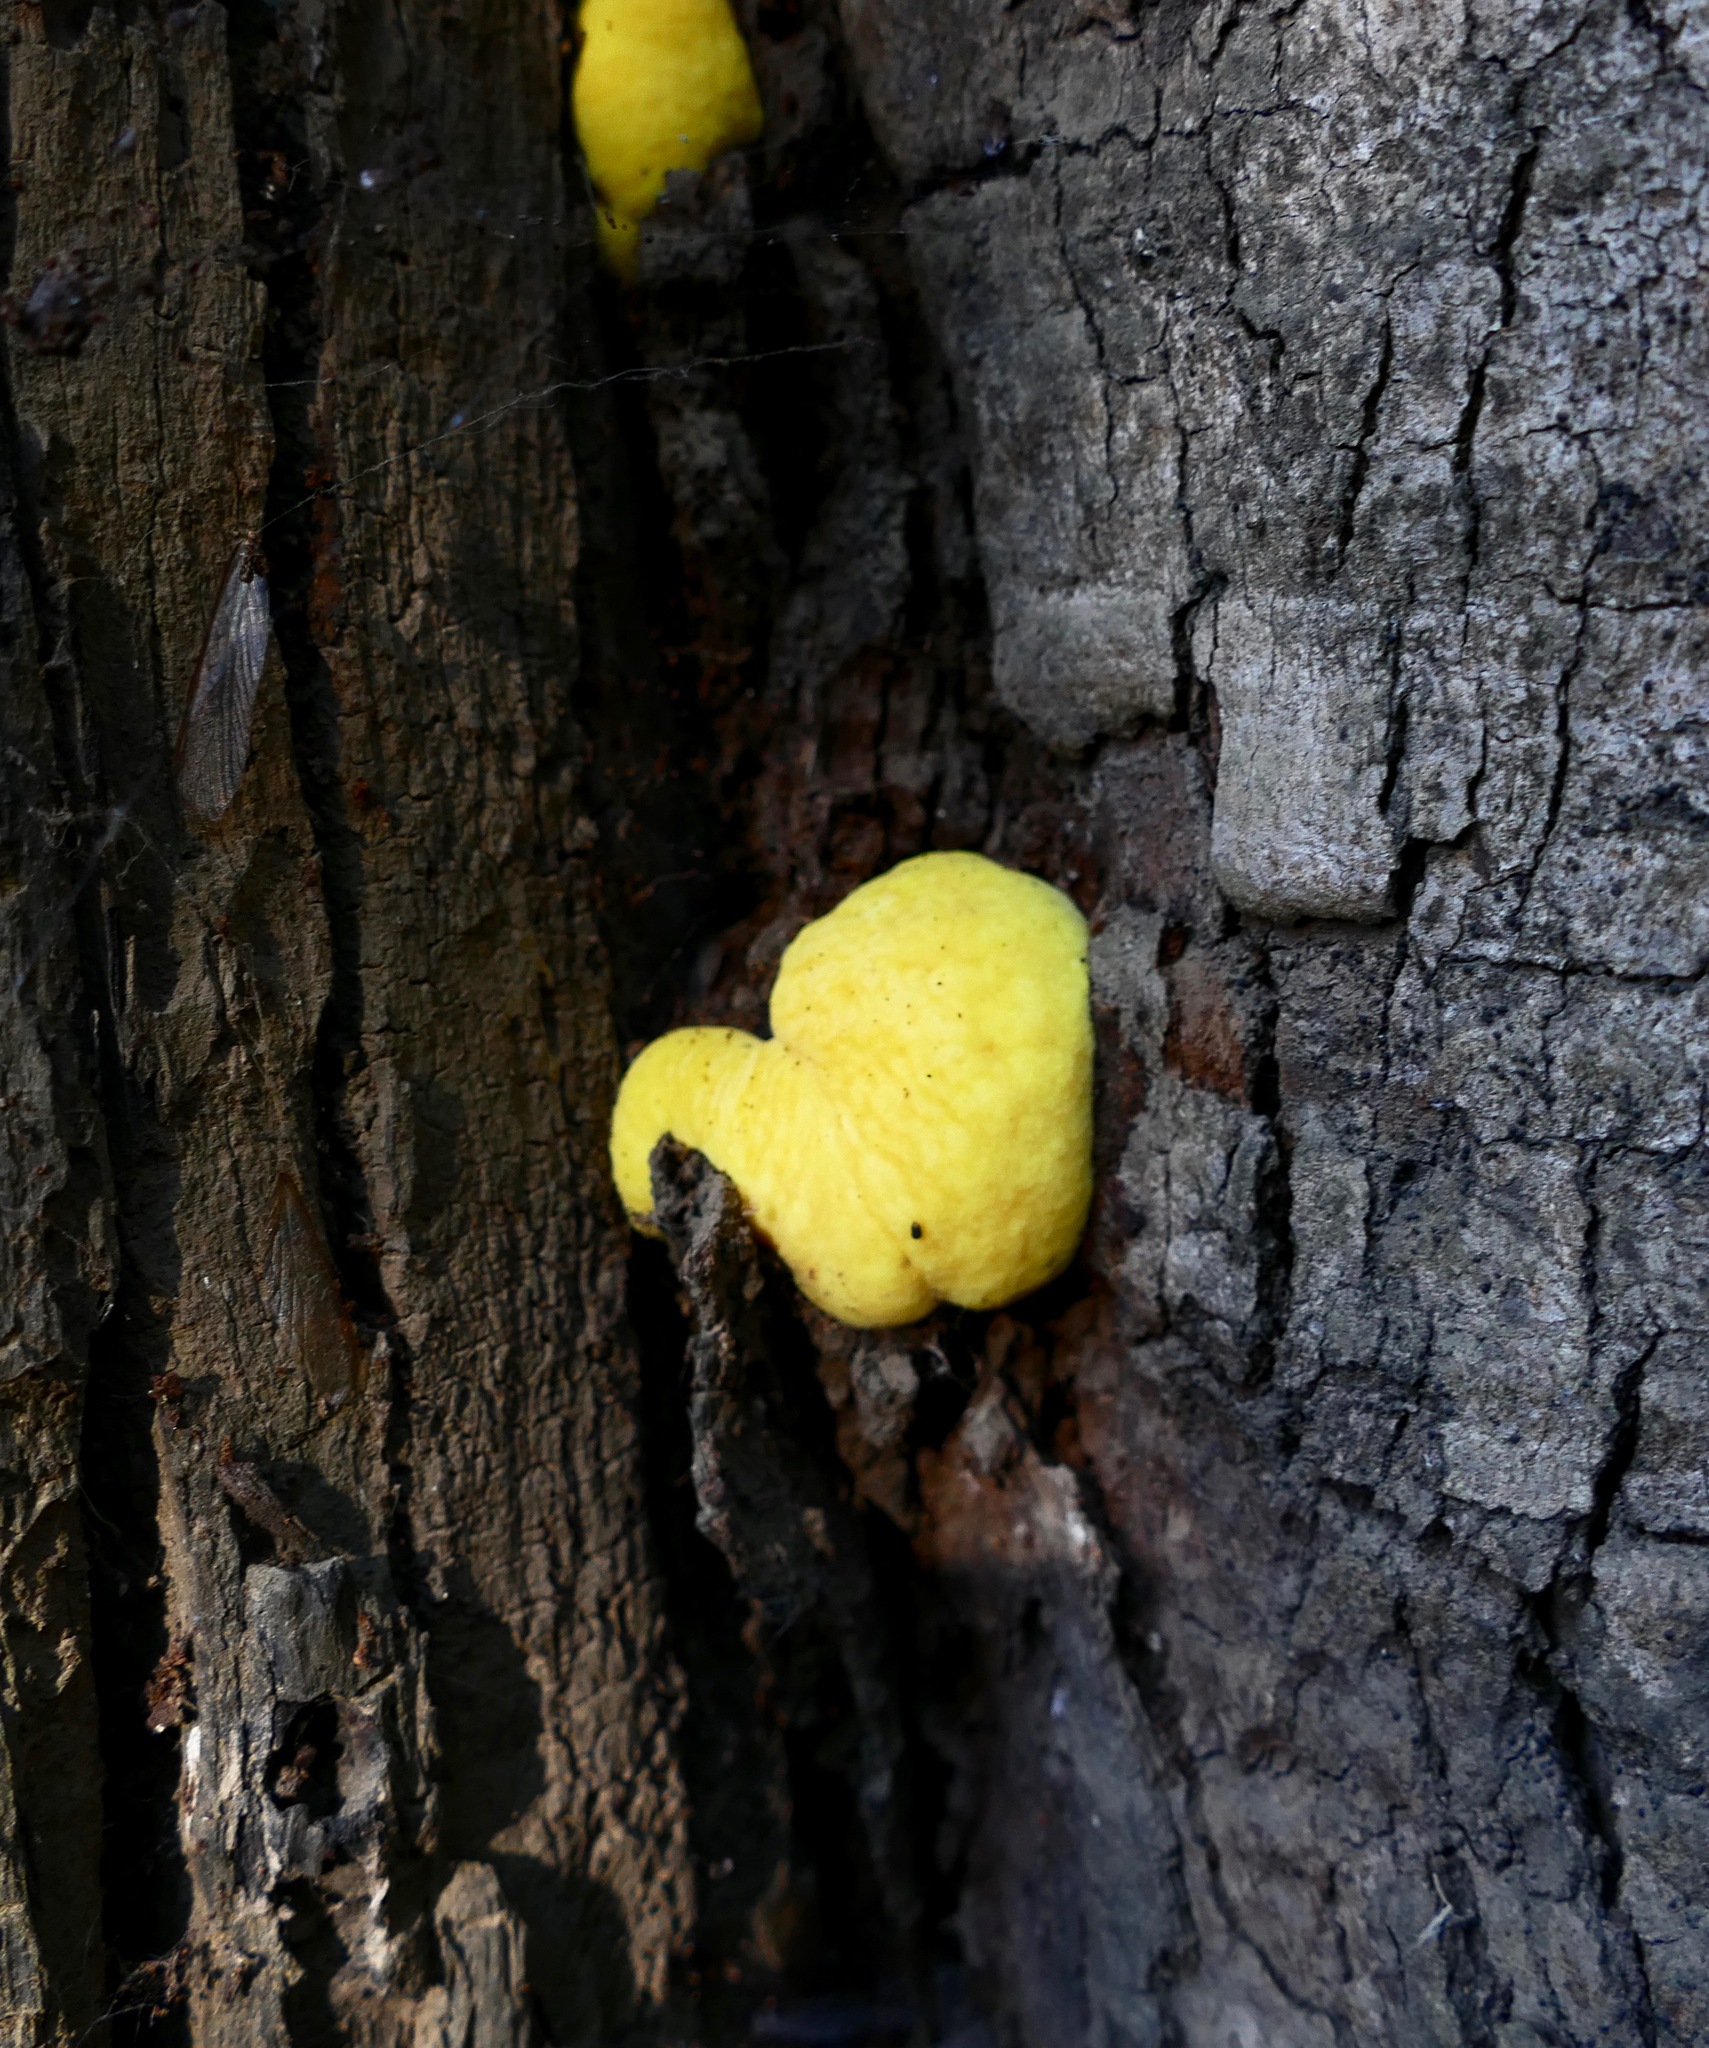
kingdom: Fungi
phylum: Basidiomycota
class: Agaricomycetes
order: Polyporales
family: Laetiporaceae
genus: Laetiporus
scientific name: Laetiporus gilbertsonii
